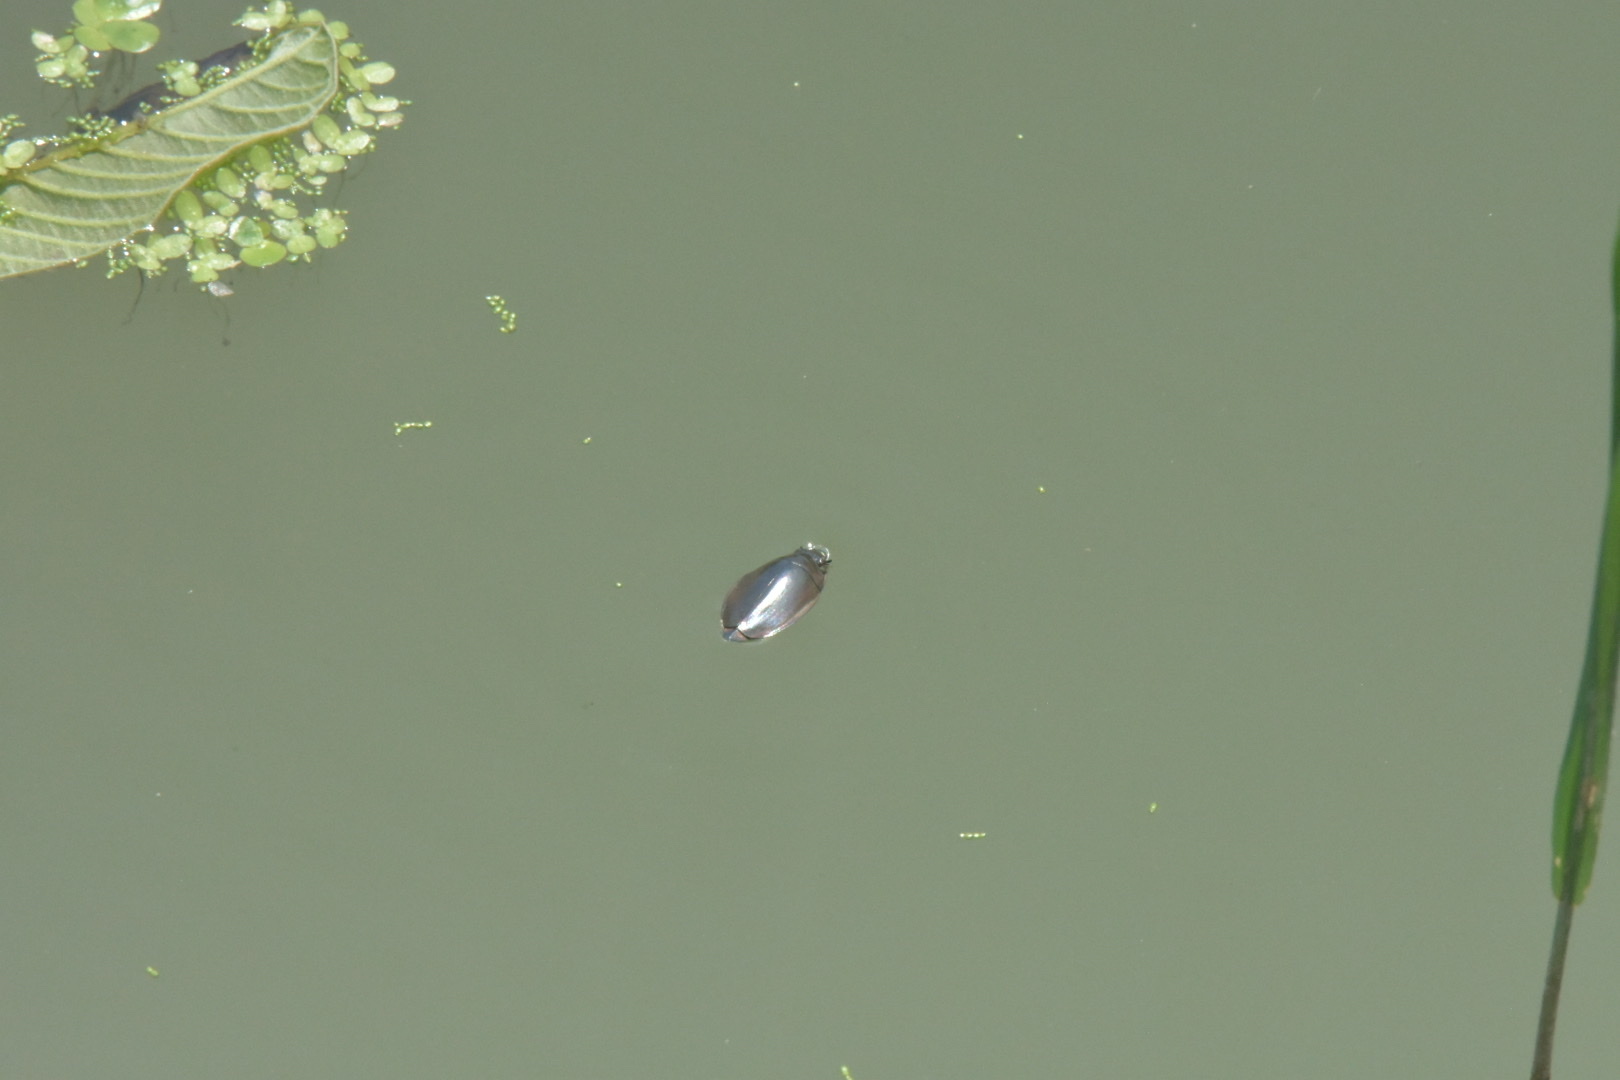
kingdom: Animalia
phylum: Arthropoda
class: Insecta
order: Coleoptera
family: Gyrinidae
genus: Dineutus
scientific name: Dineutus
